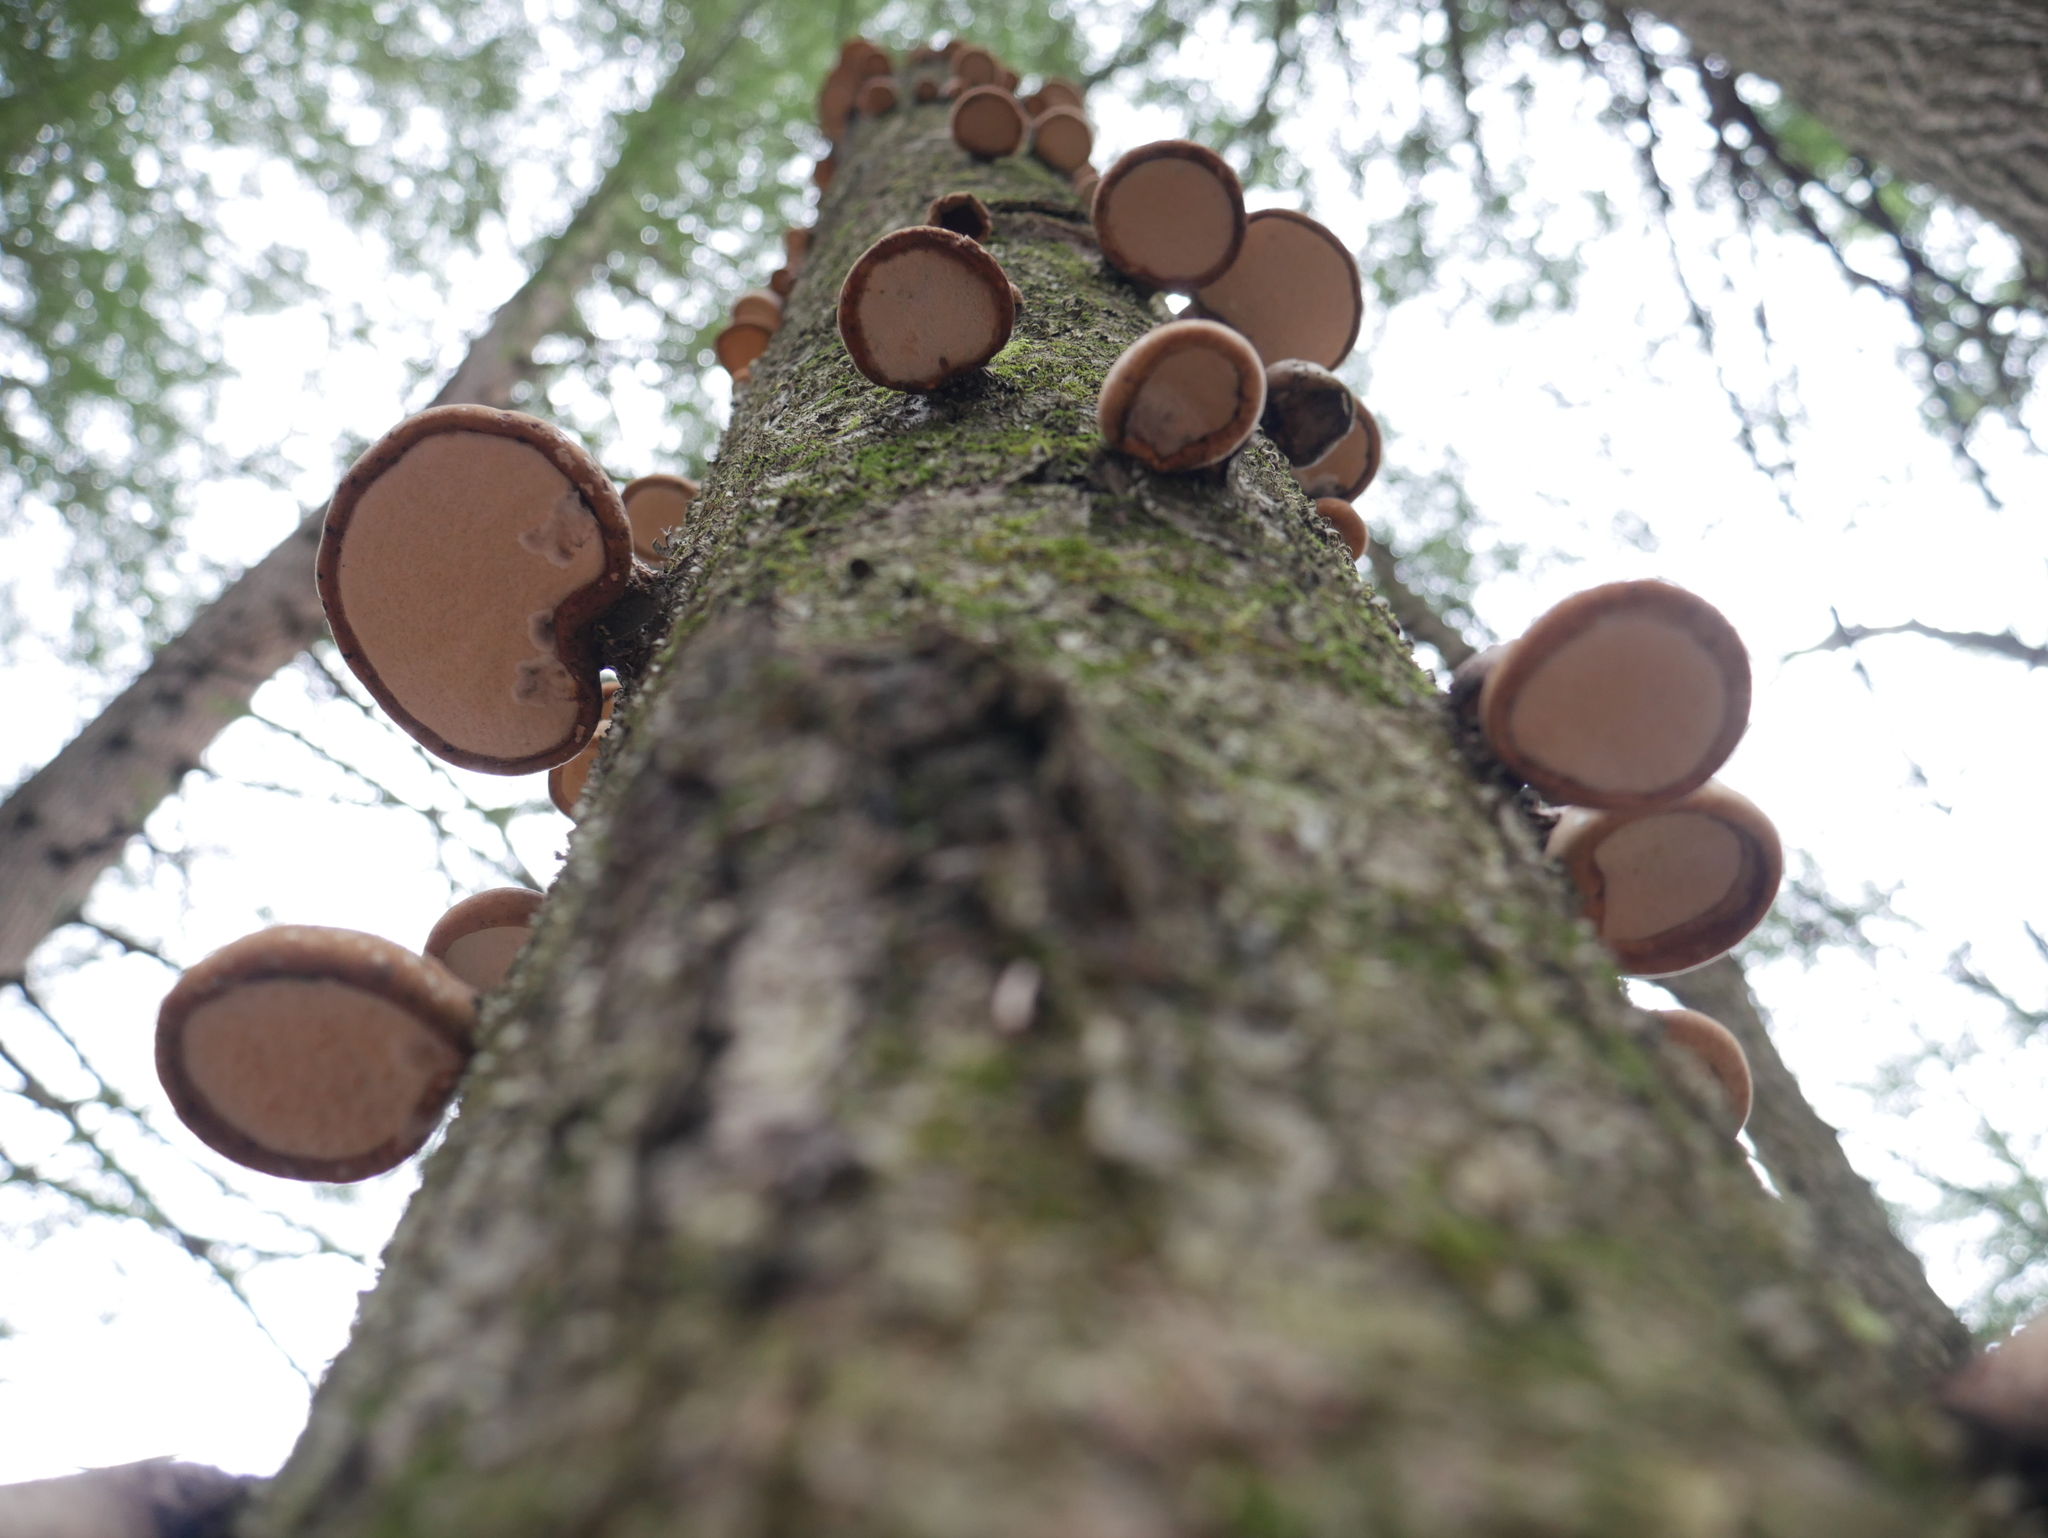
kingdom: Fungi
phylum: Basidiomycota
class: Agaricomycetes
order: Polyporales
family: Fomitopsidaceae
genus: Fomitopsis
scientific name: Fomitopsis betulina
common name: Birch polypore
